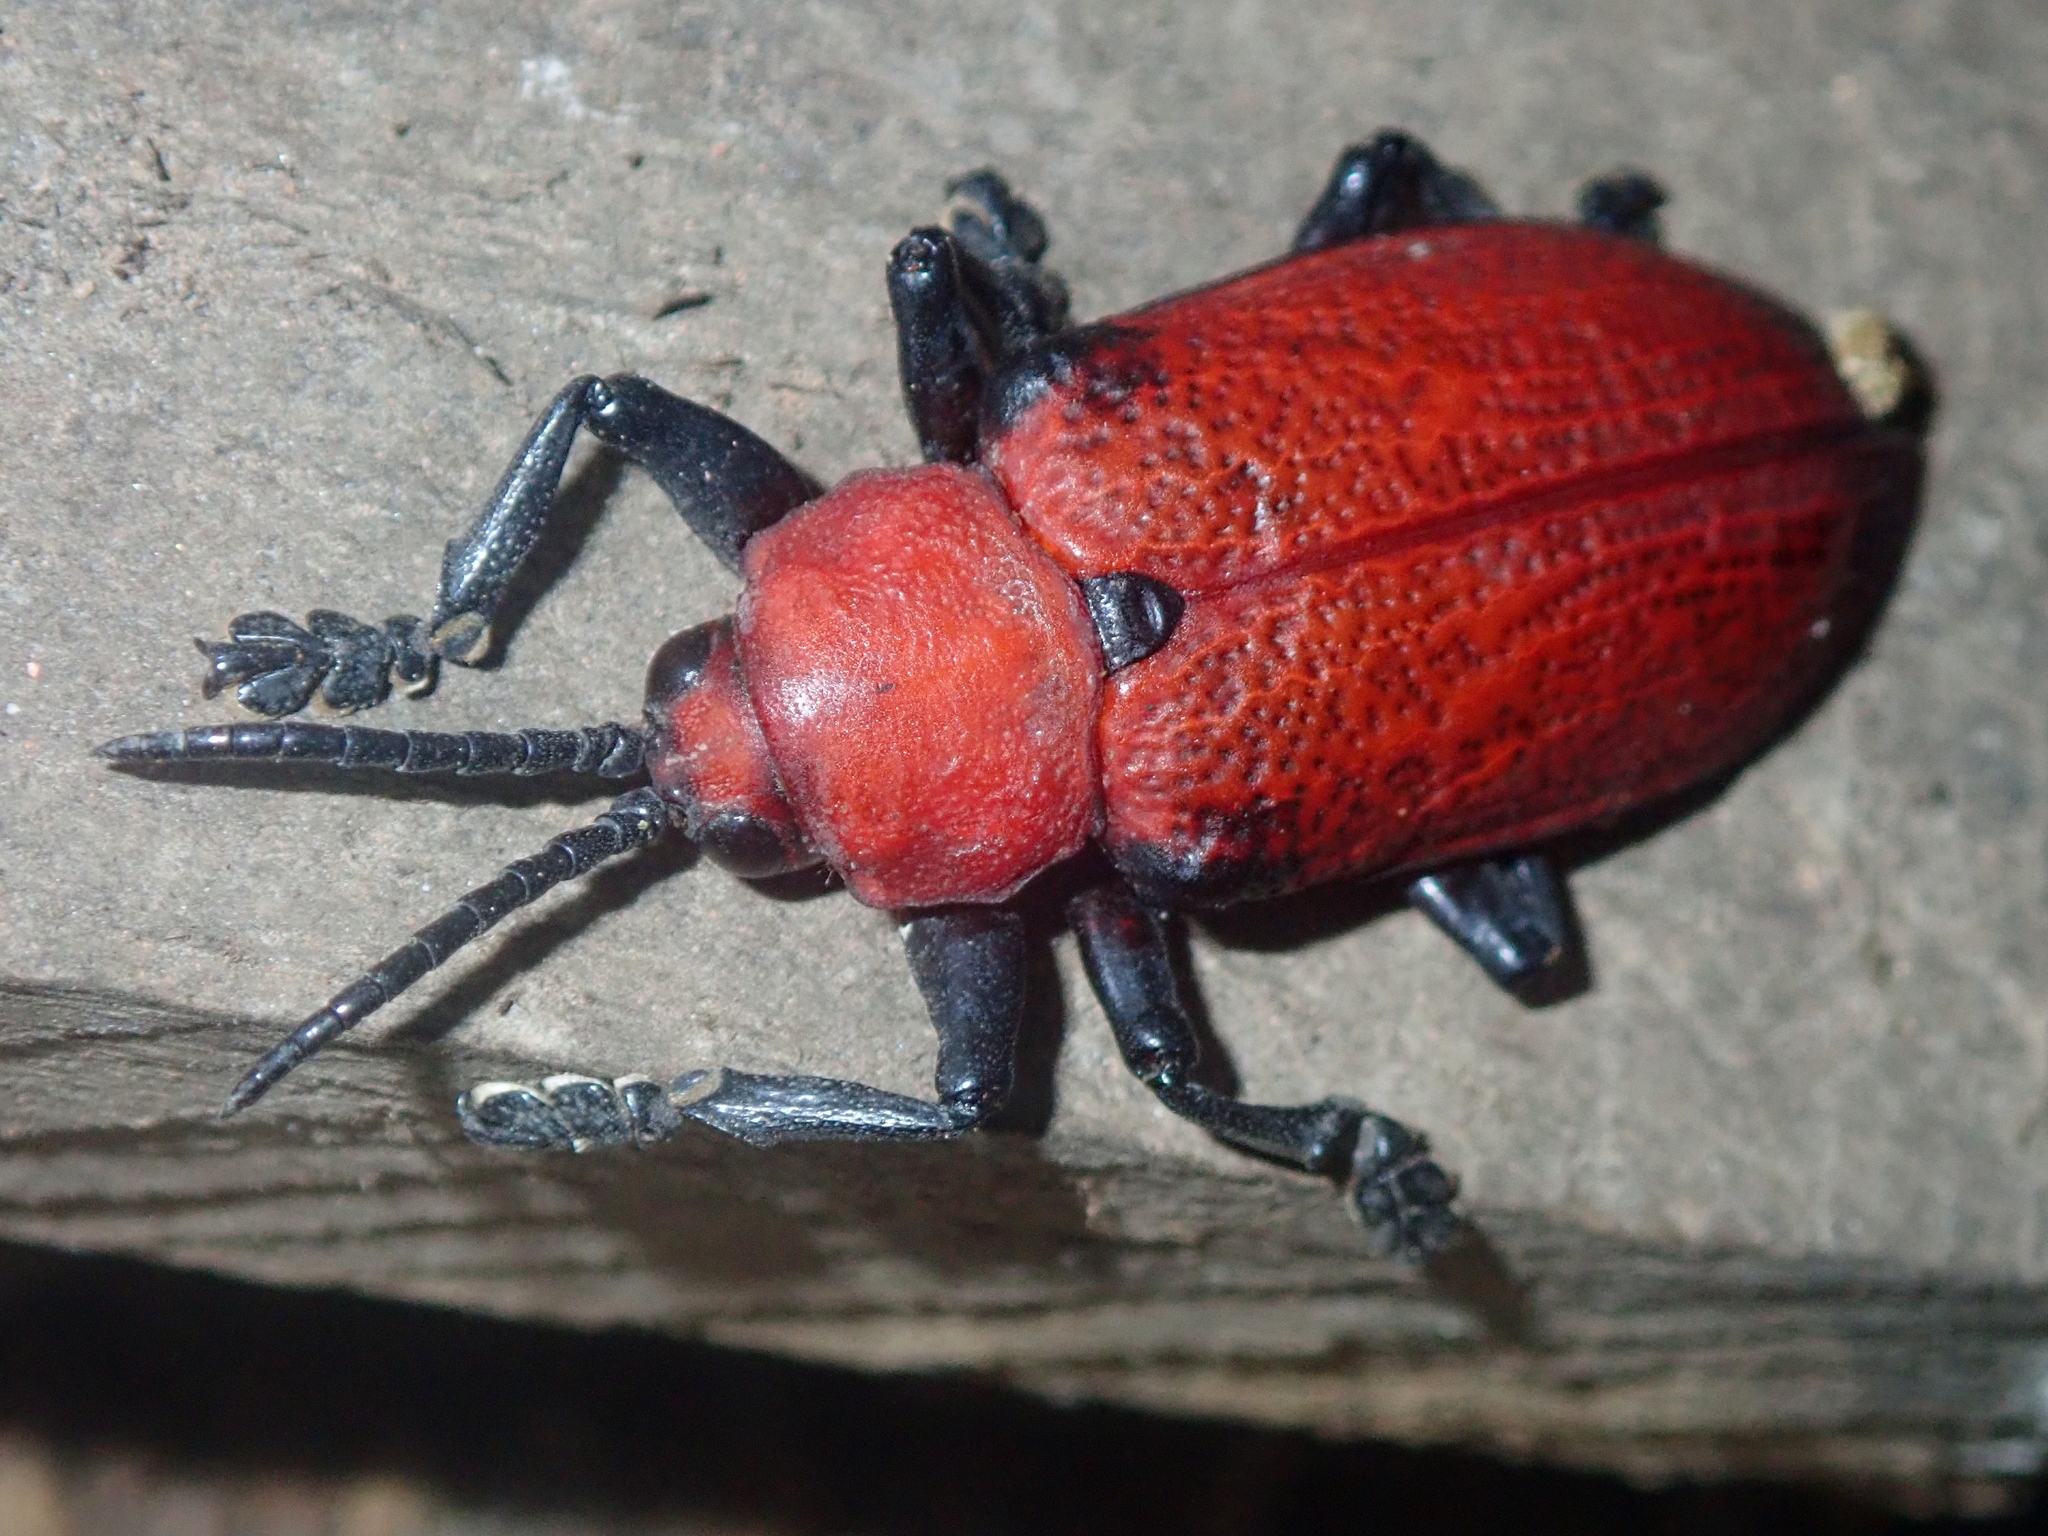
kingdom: Animalia
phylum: Arthropoda
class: Insecta
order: Coleoptera
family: Chrysomelidae
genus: Coraliomela
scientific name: Coraliomela brunnea
